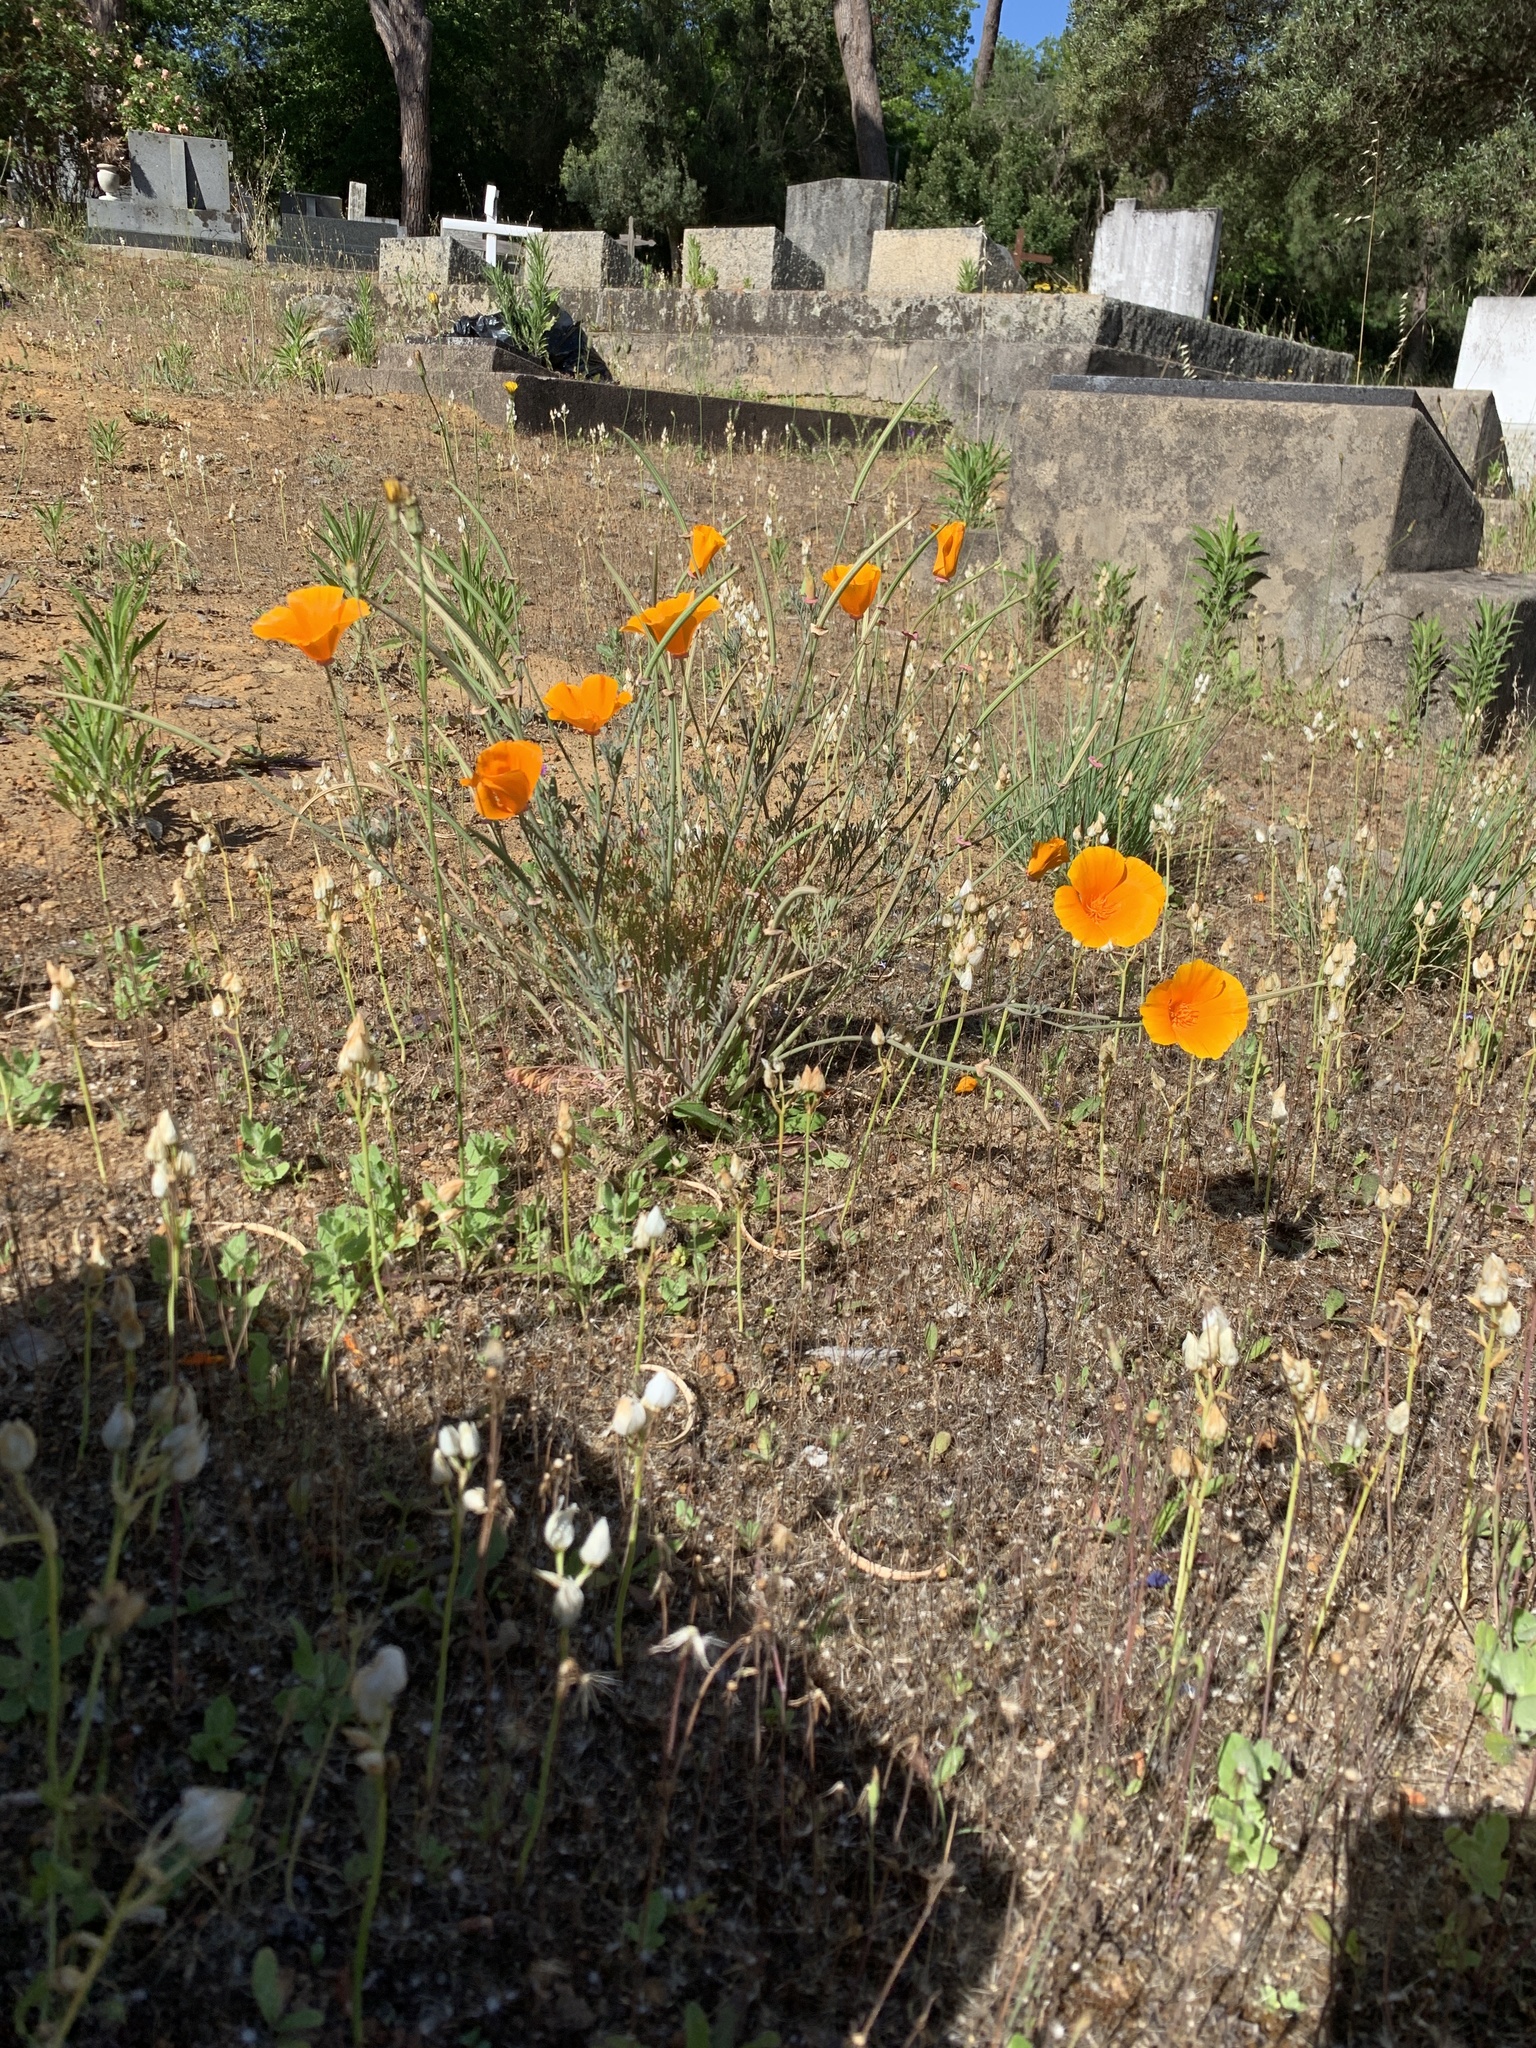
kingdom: Plantae
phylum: Tracheophyta
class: Magnoliopsida
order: Ranunculales
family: Papaveraceae
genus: Eschscholzia
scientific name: Eschscholzia californica
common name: California poppy
